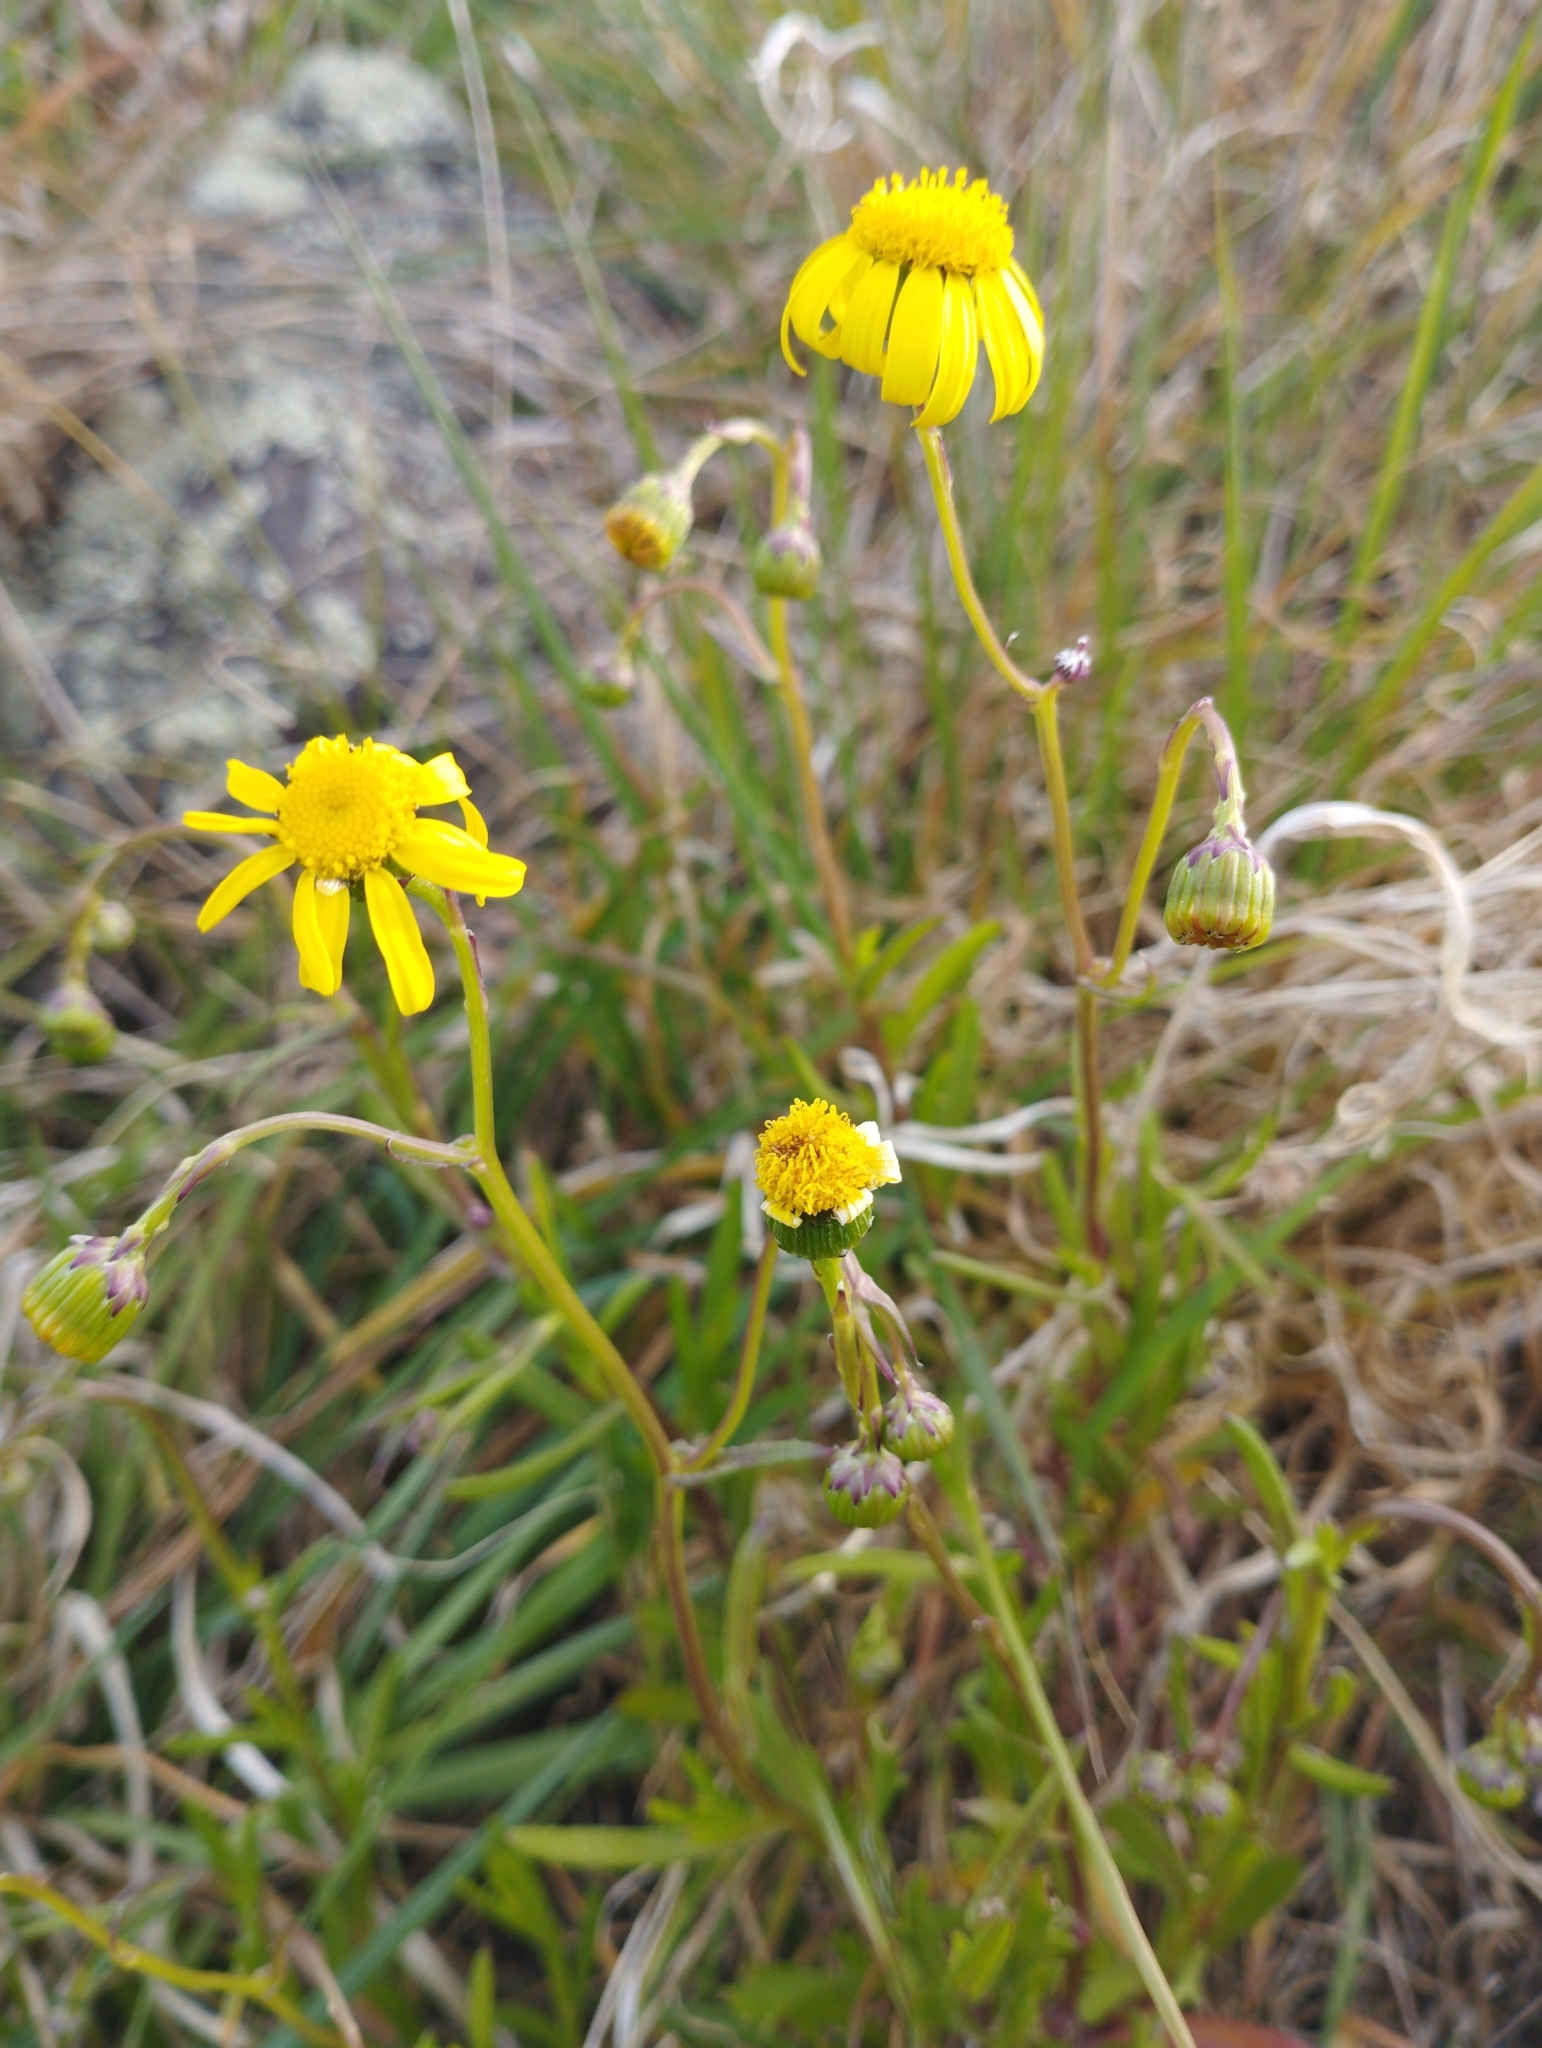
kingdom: Plantae
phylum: Tracheophyta
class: Magnoliopsida
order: Asterales
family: Asteraceae
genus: Senecio
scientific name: Senecio skirrhodon
